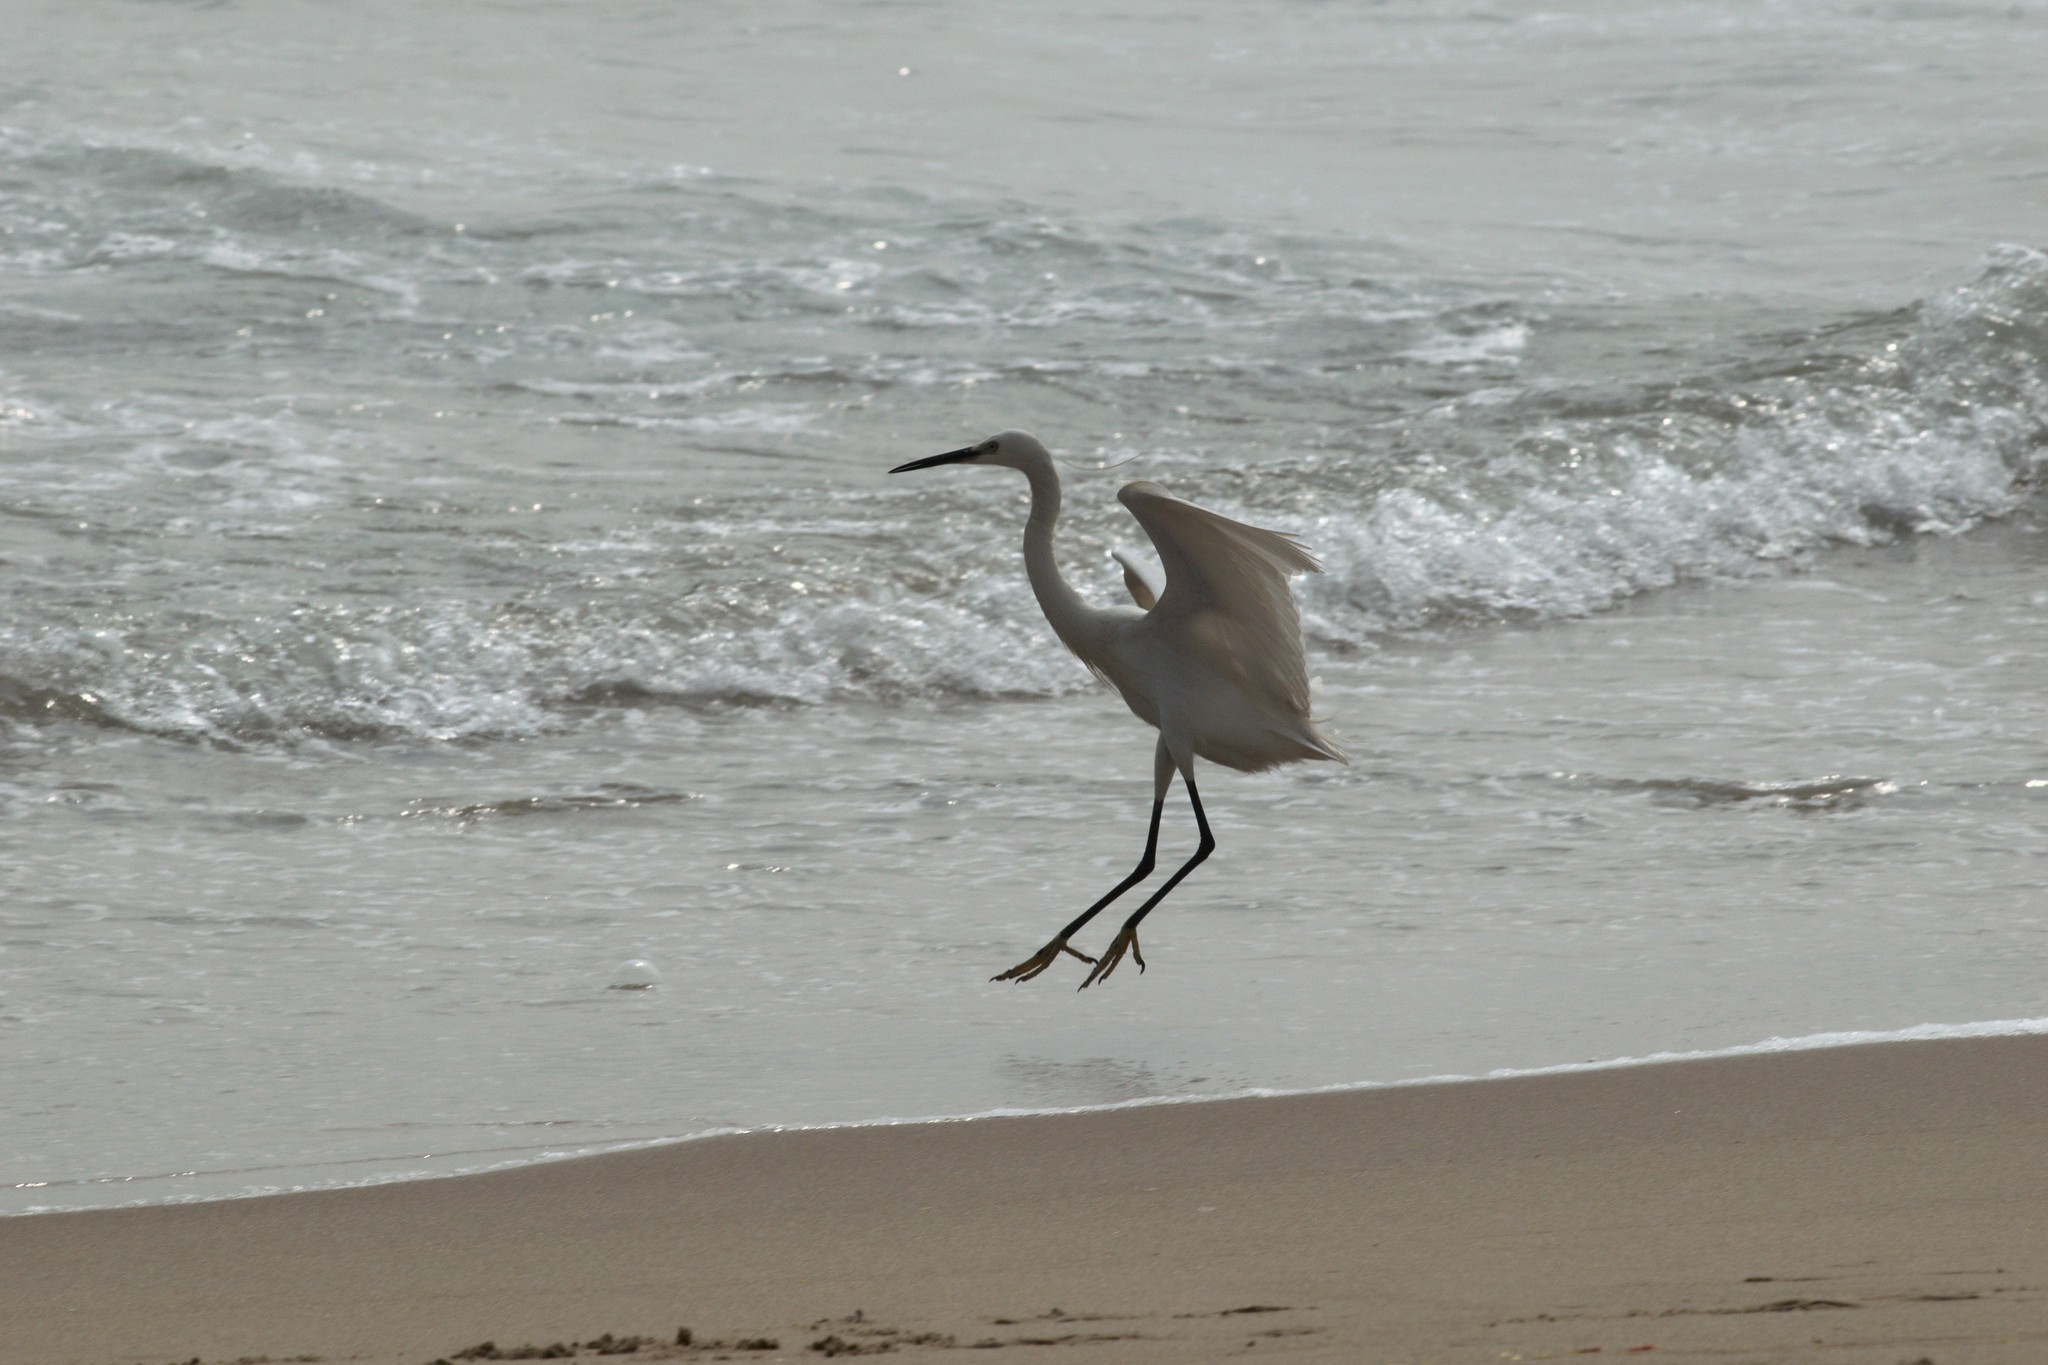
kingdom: Animalia
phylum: Chordata
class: Aves
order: Pelecaniformes
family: Ardeidae
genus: Egretta
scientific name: Egretta garzetta
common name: Little egret
